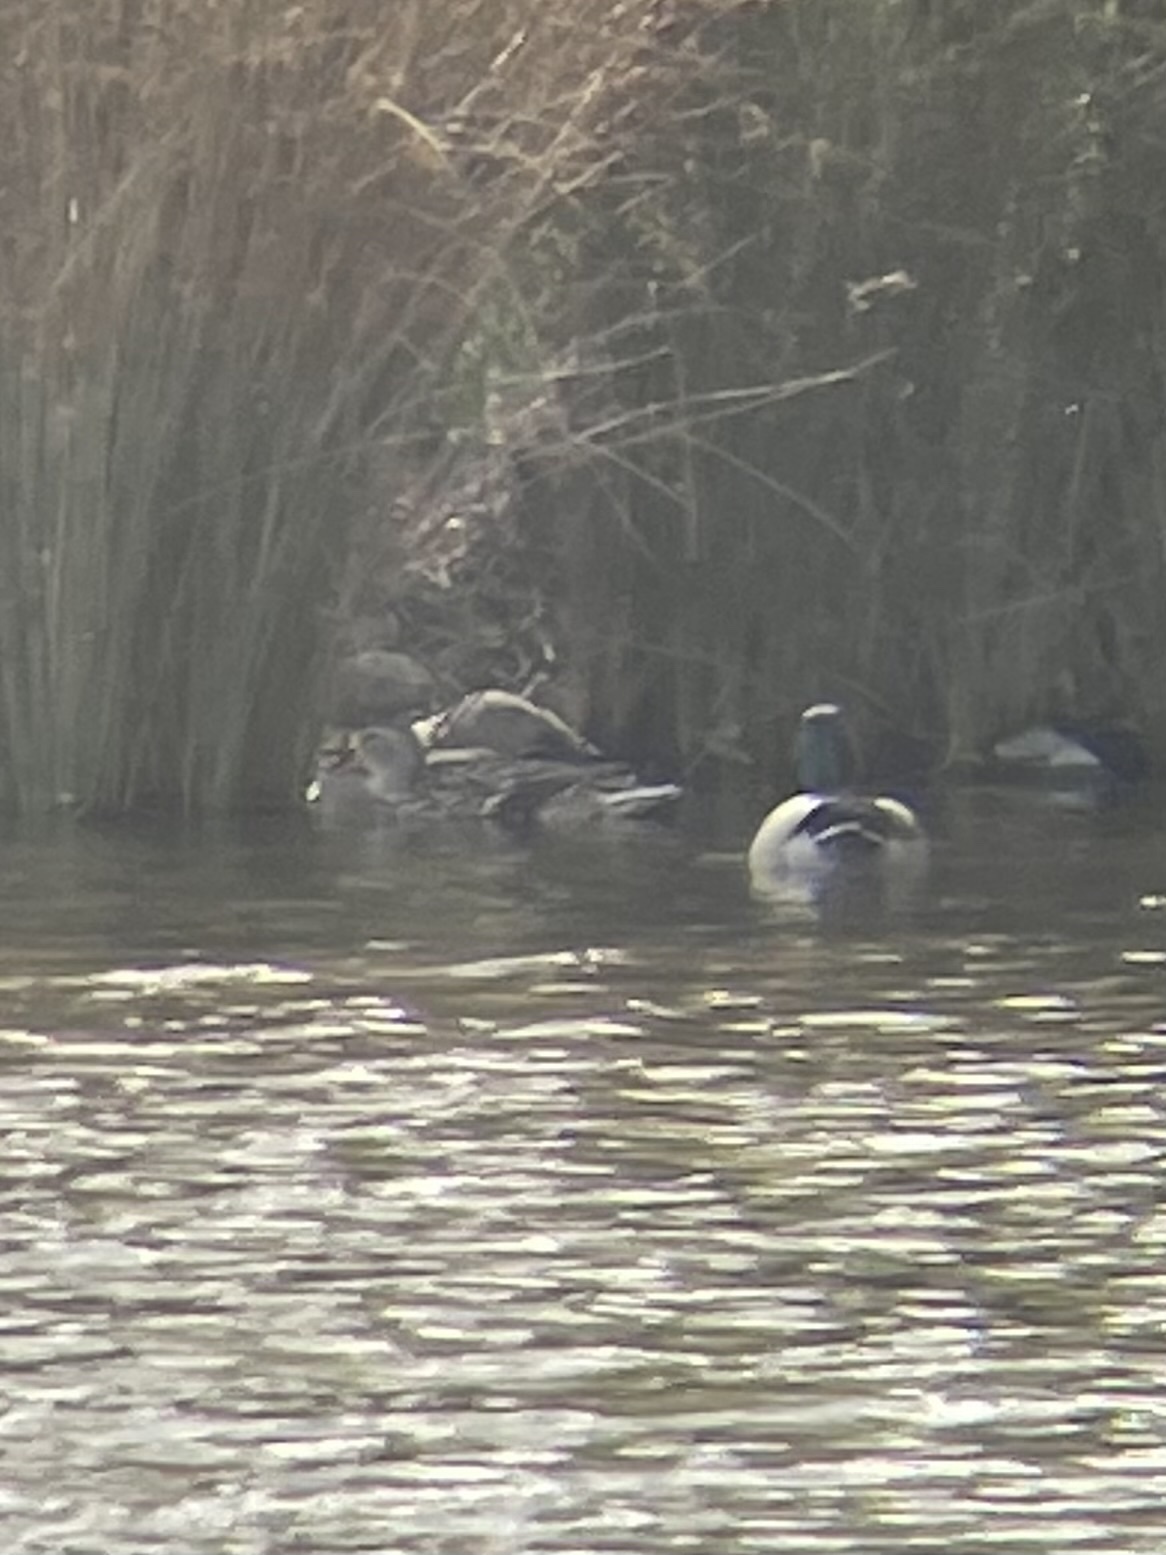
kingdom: Animalia
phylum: Chordata
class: Aves
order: Anseriformes
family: Anatidae
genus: Anas
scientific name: Anas platyrhynchos
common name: Mallard
